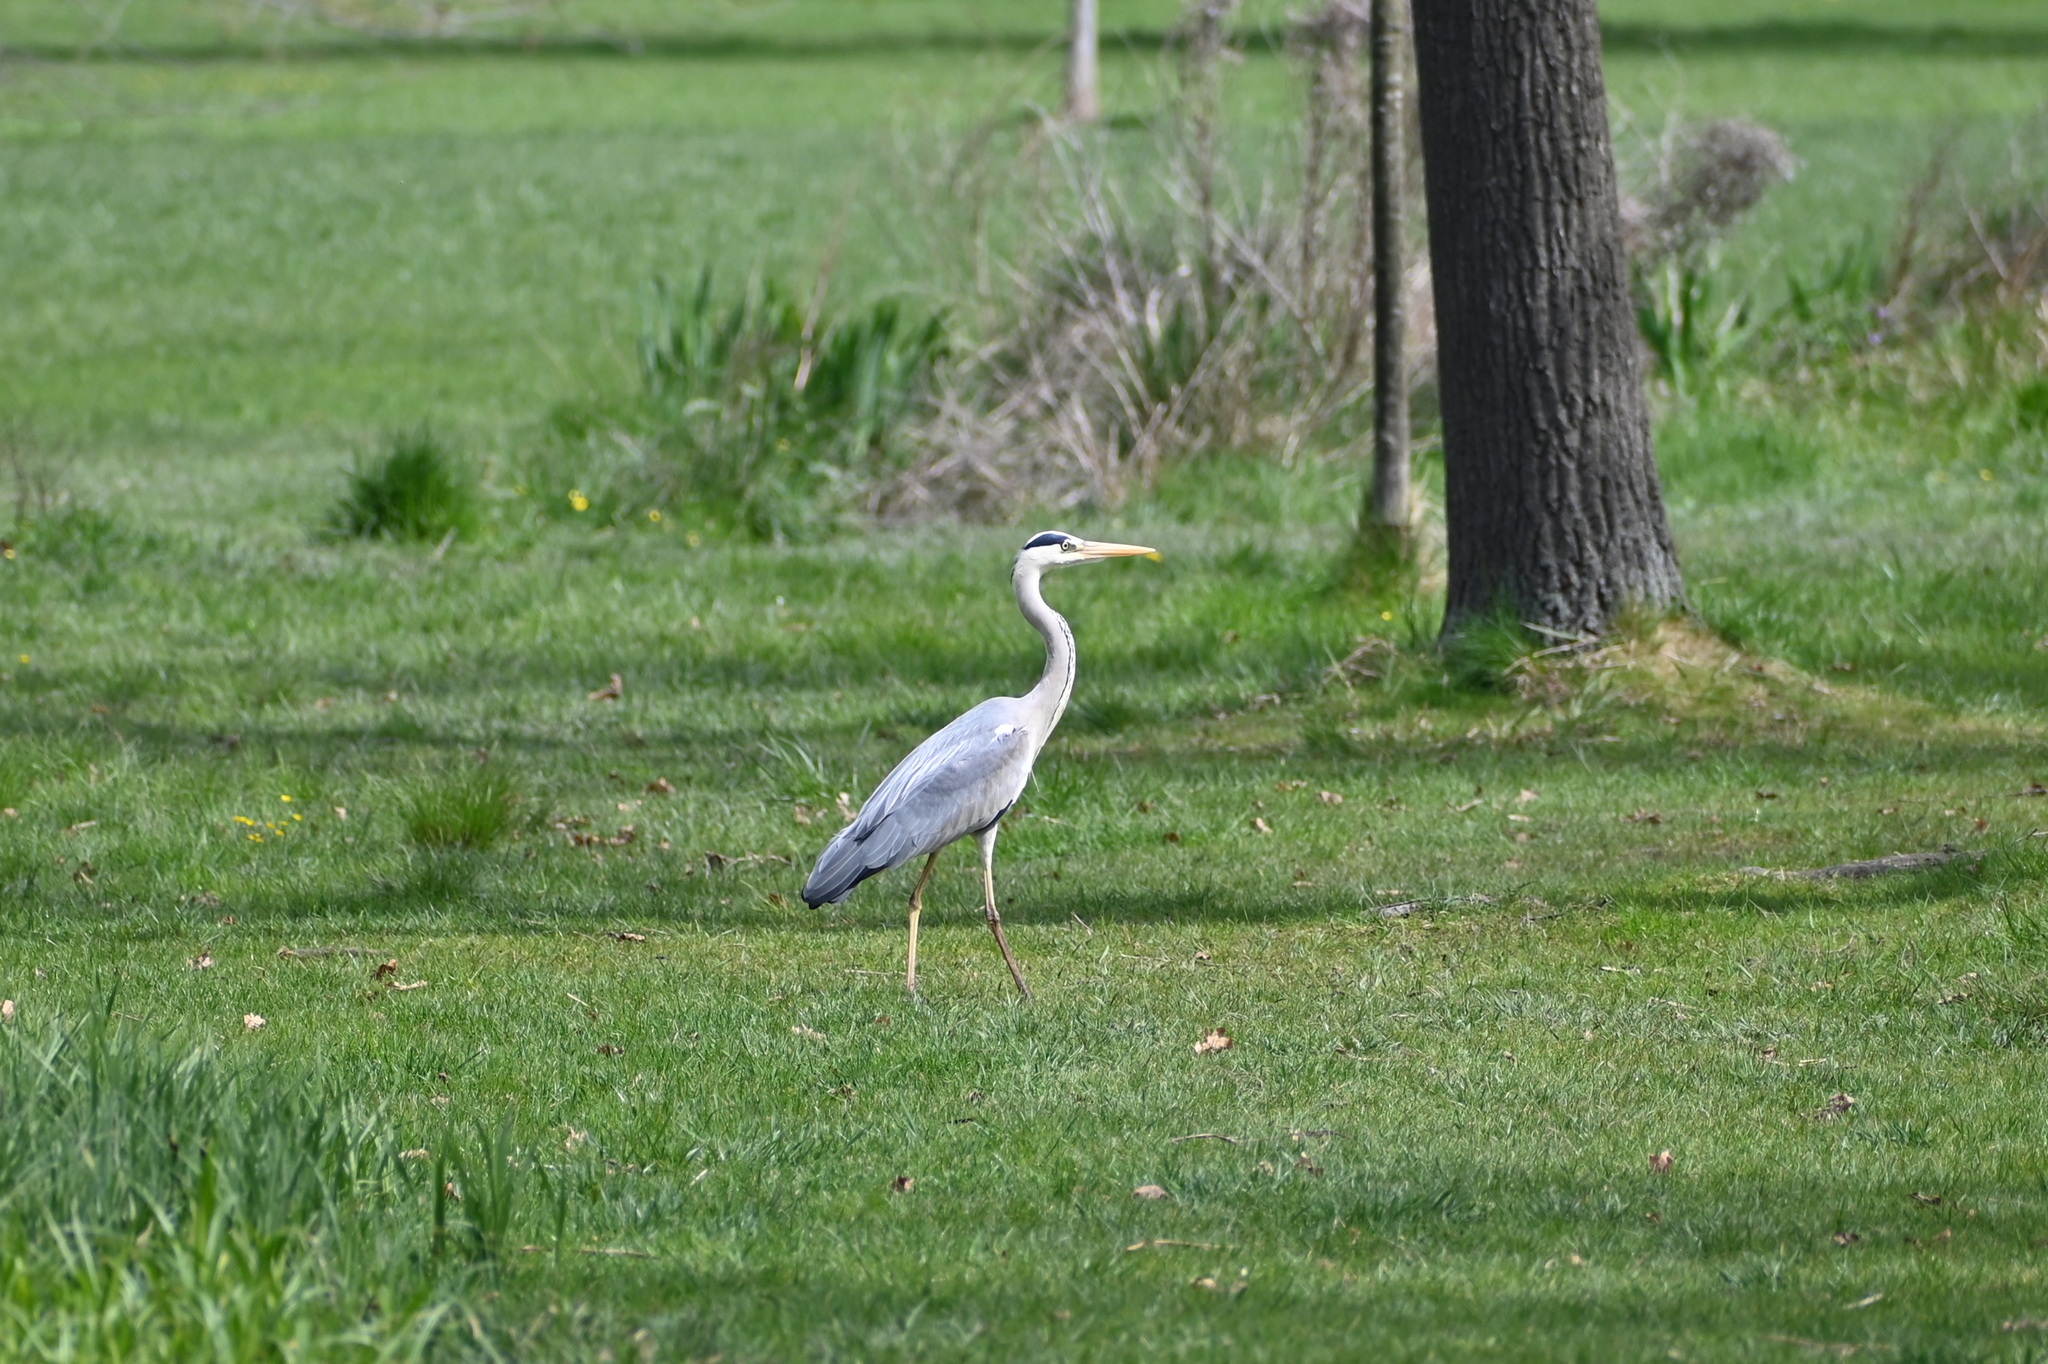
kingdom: Animalia
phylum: Chordata
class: Aves
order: Pelecaniformes
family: Ardeidae
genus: Ardea
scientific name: Ardea cinerea
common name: Grey heron
